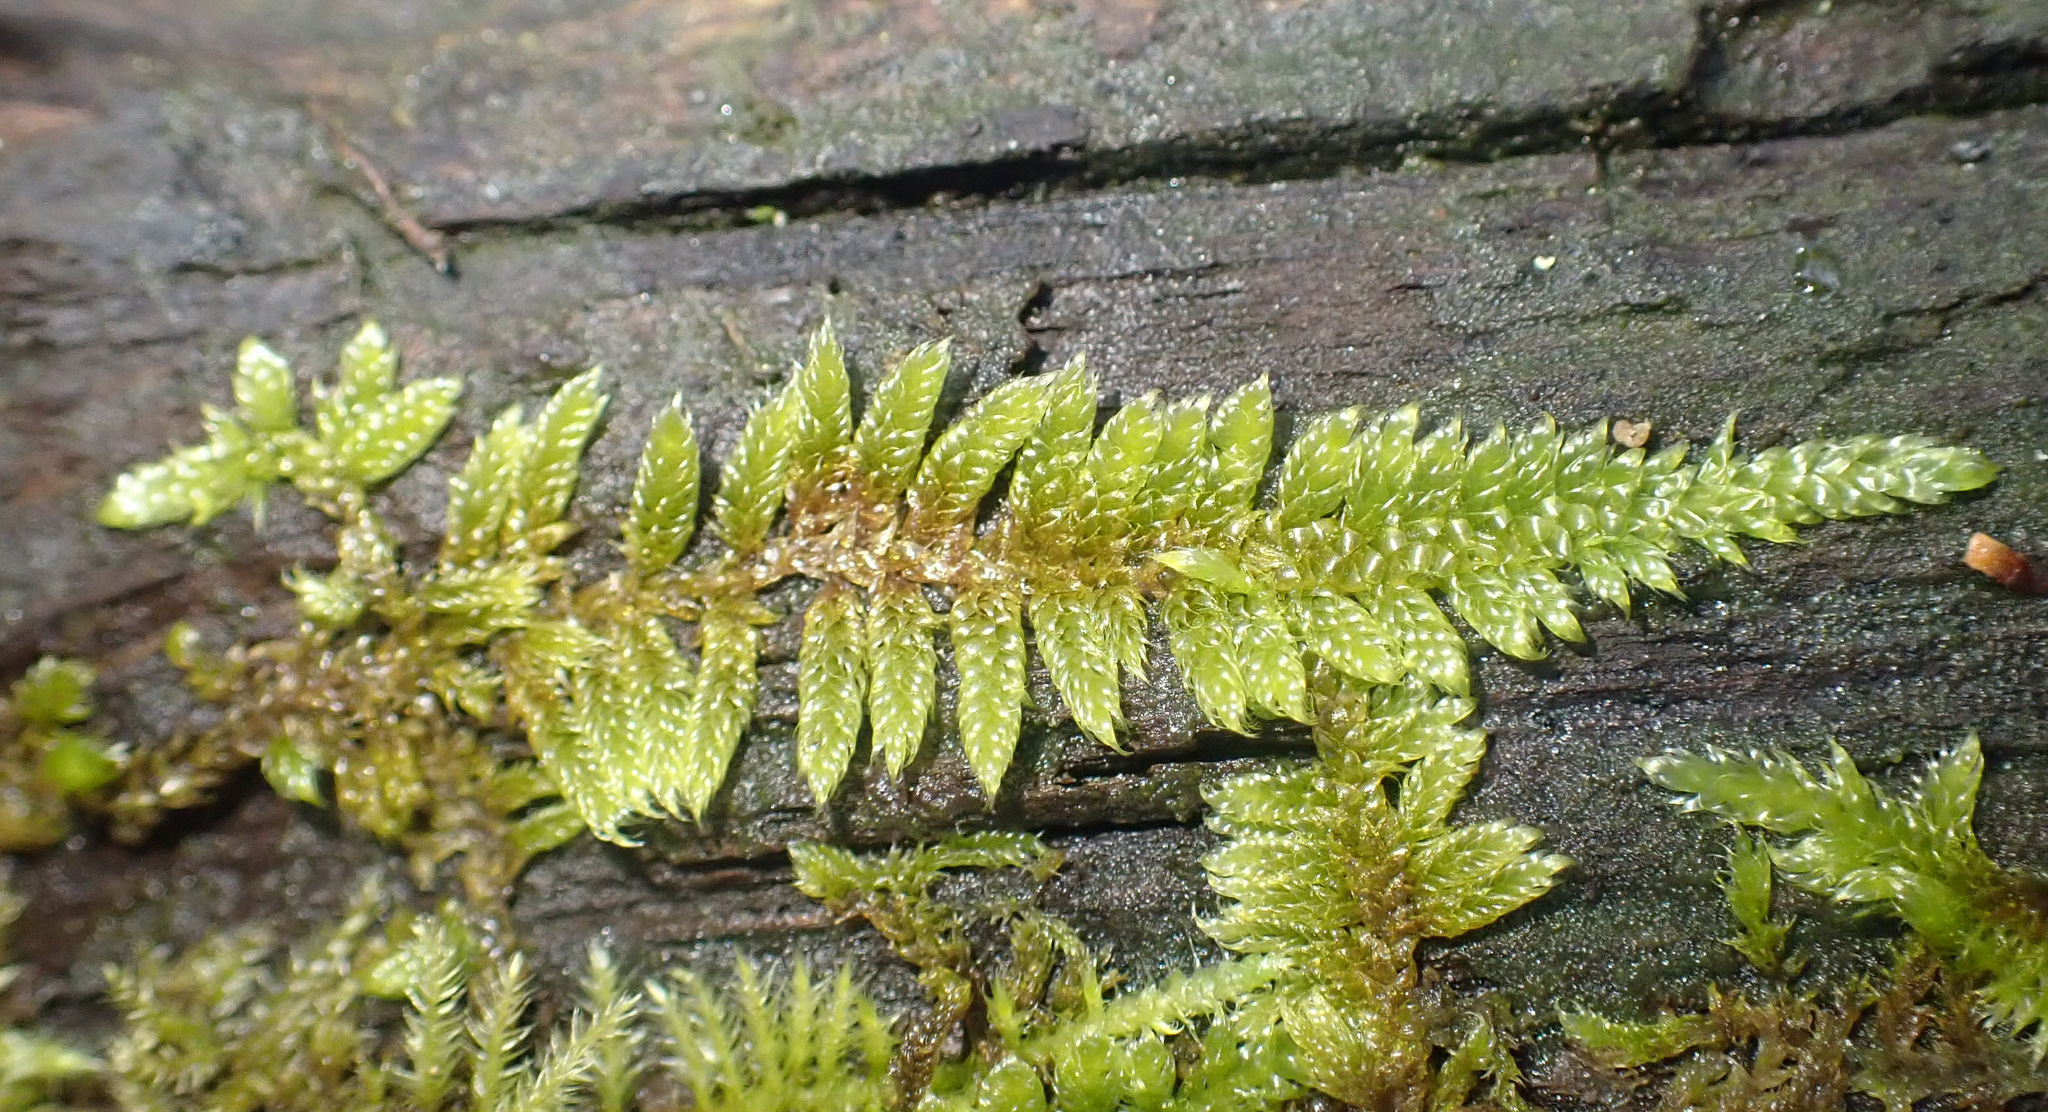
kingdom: Plantae
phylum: Bryophyta
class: Bryopsida
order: Hypnales
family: Hypnaceae
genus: Hypnum
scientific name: Hypnum cupressiforme
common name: Cypress-leaved plait-moss
